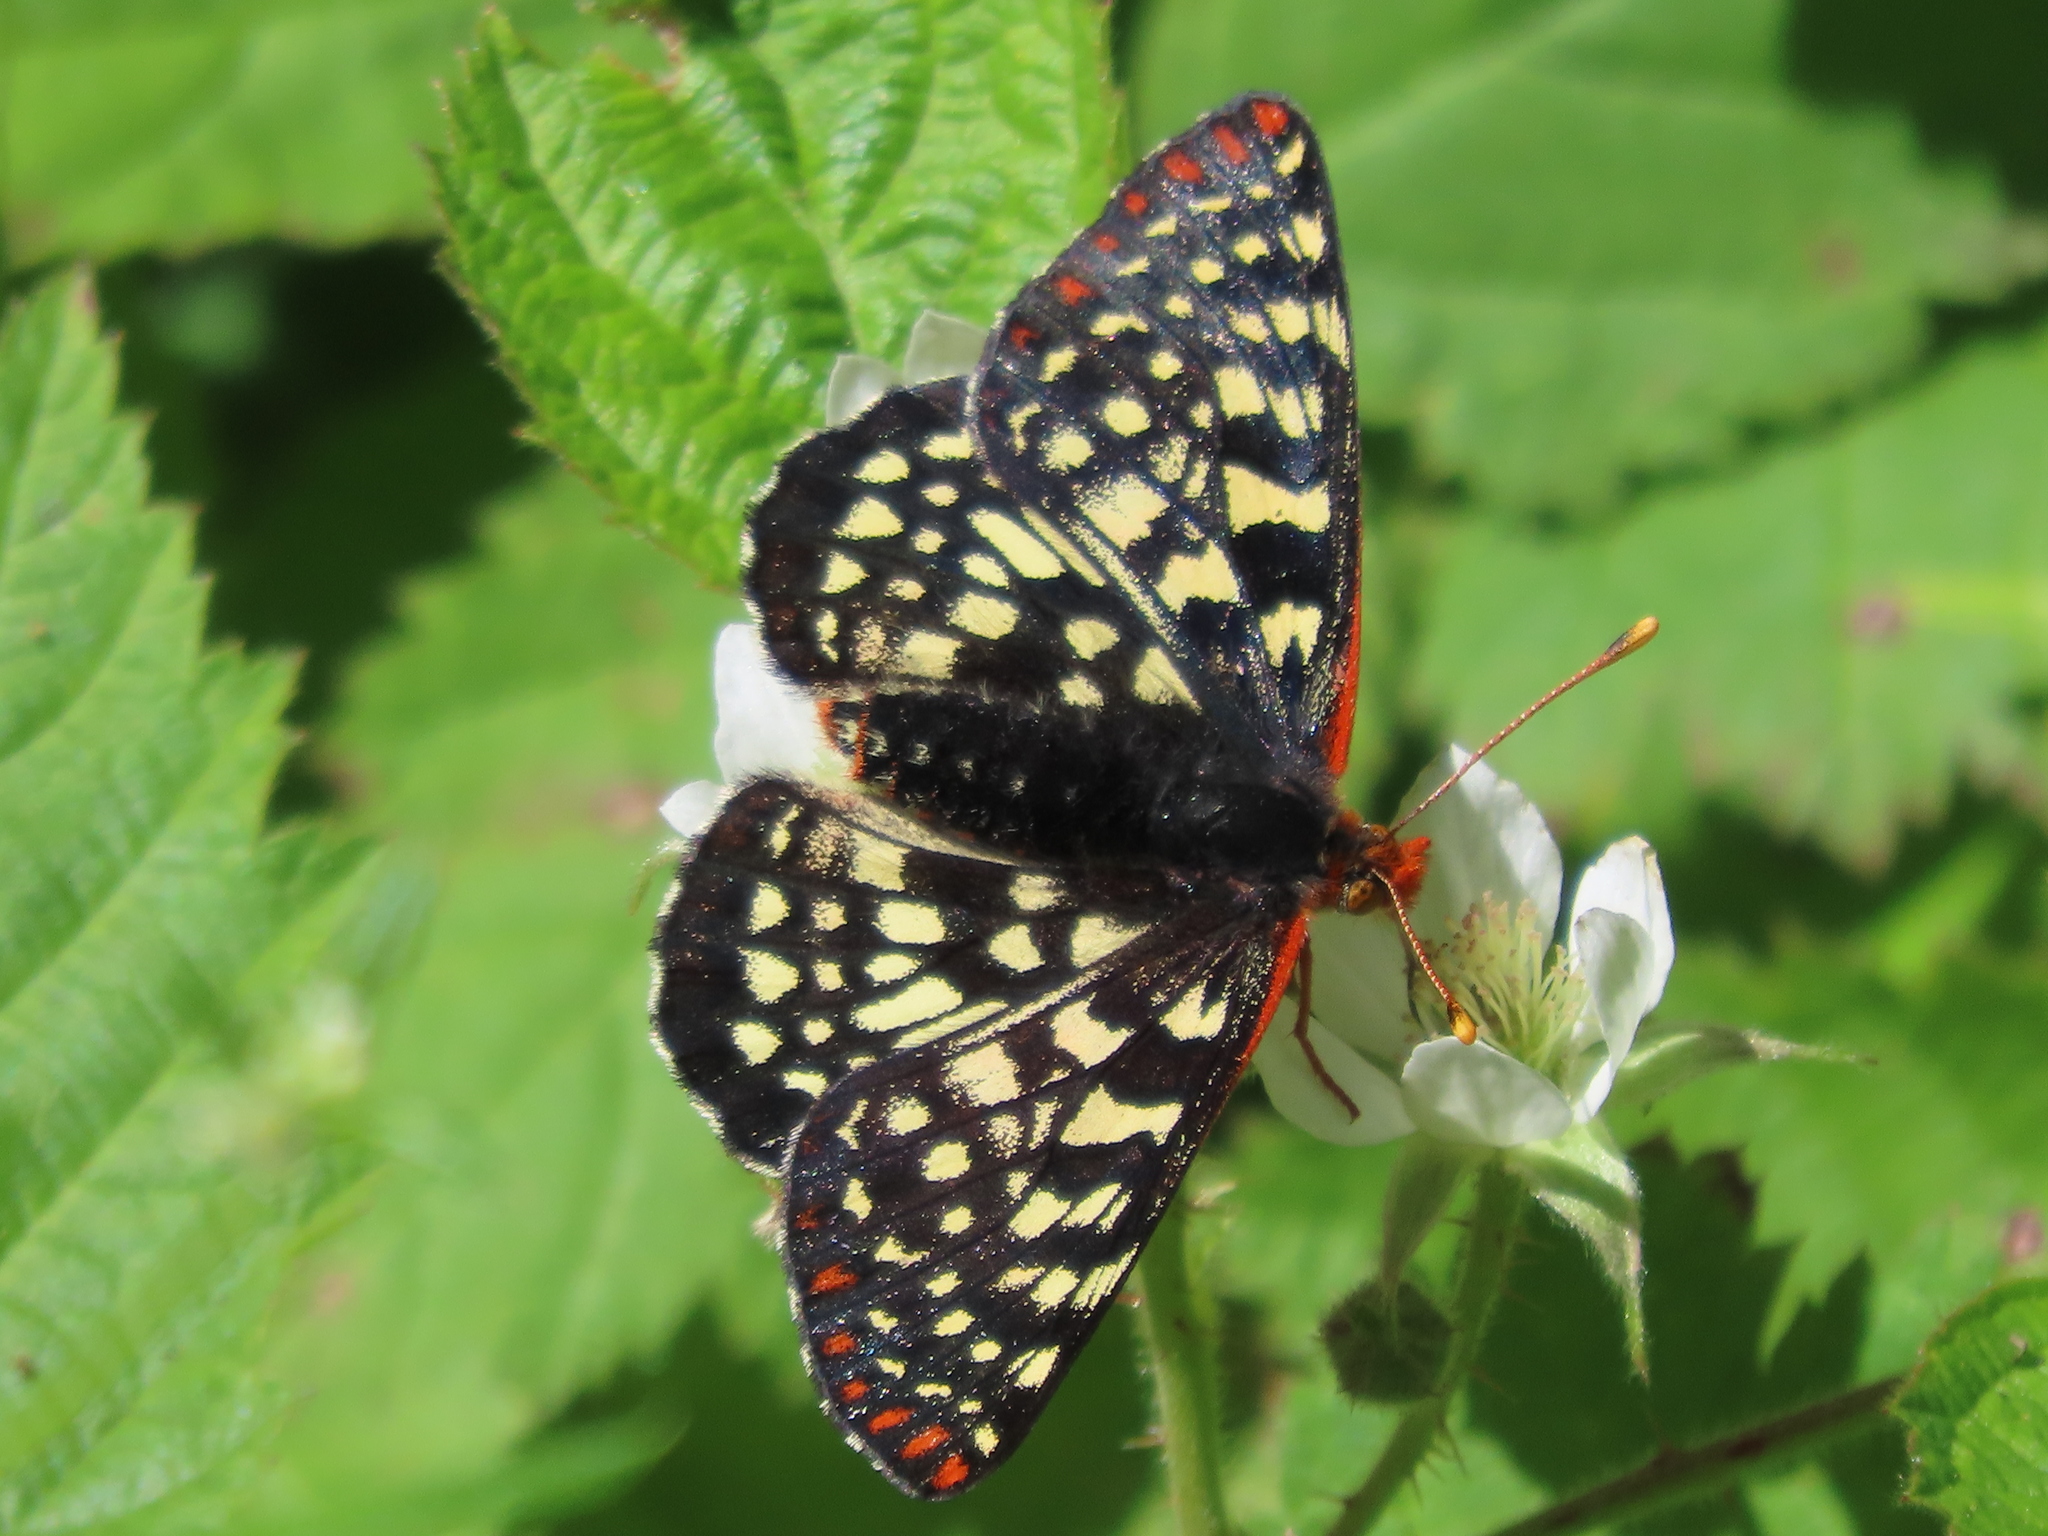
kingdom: Animalia
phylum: Arthropoda
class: Insecta
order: Lepidoptera
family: Nymphalidae
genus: Occidryas
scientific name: Occidryas chalcedona
